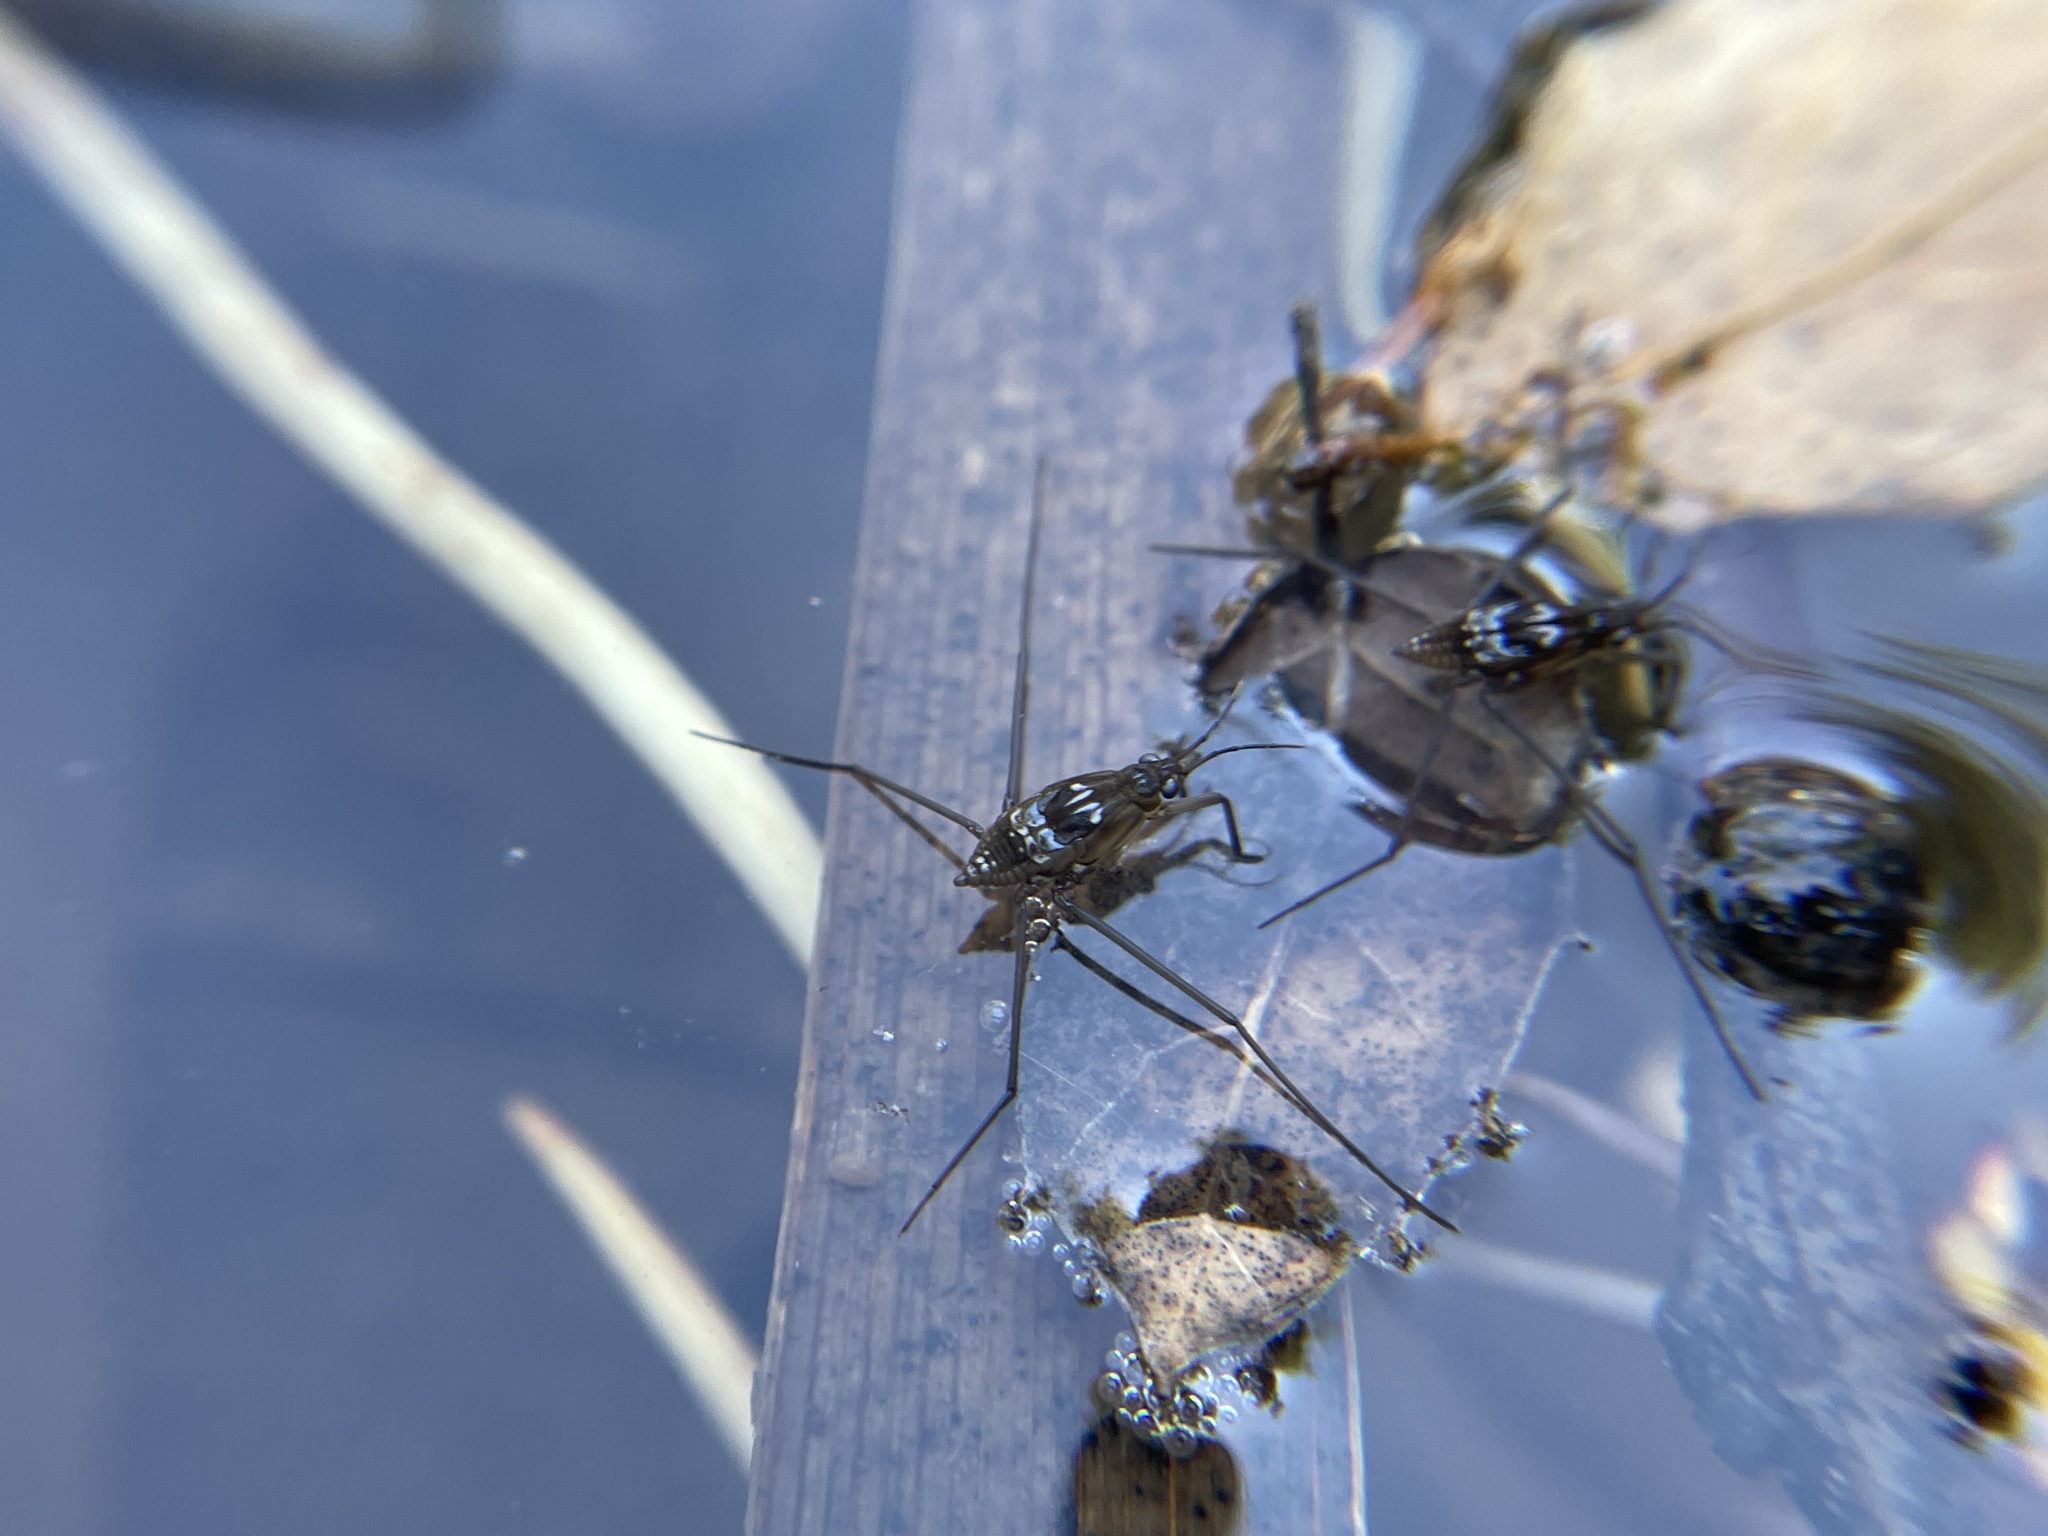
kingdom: Animalia
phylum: Arthropoda
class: Insecta
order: Hemiptera
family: Gerridae
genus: Aquarius
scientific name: Aquarius remigis
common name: Common water strider
